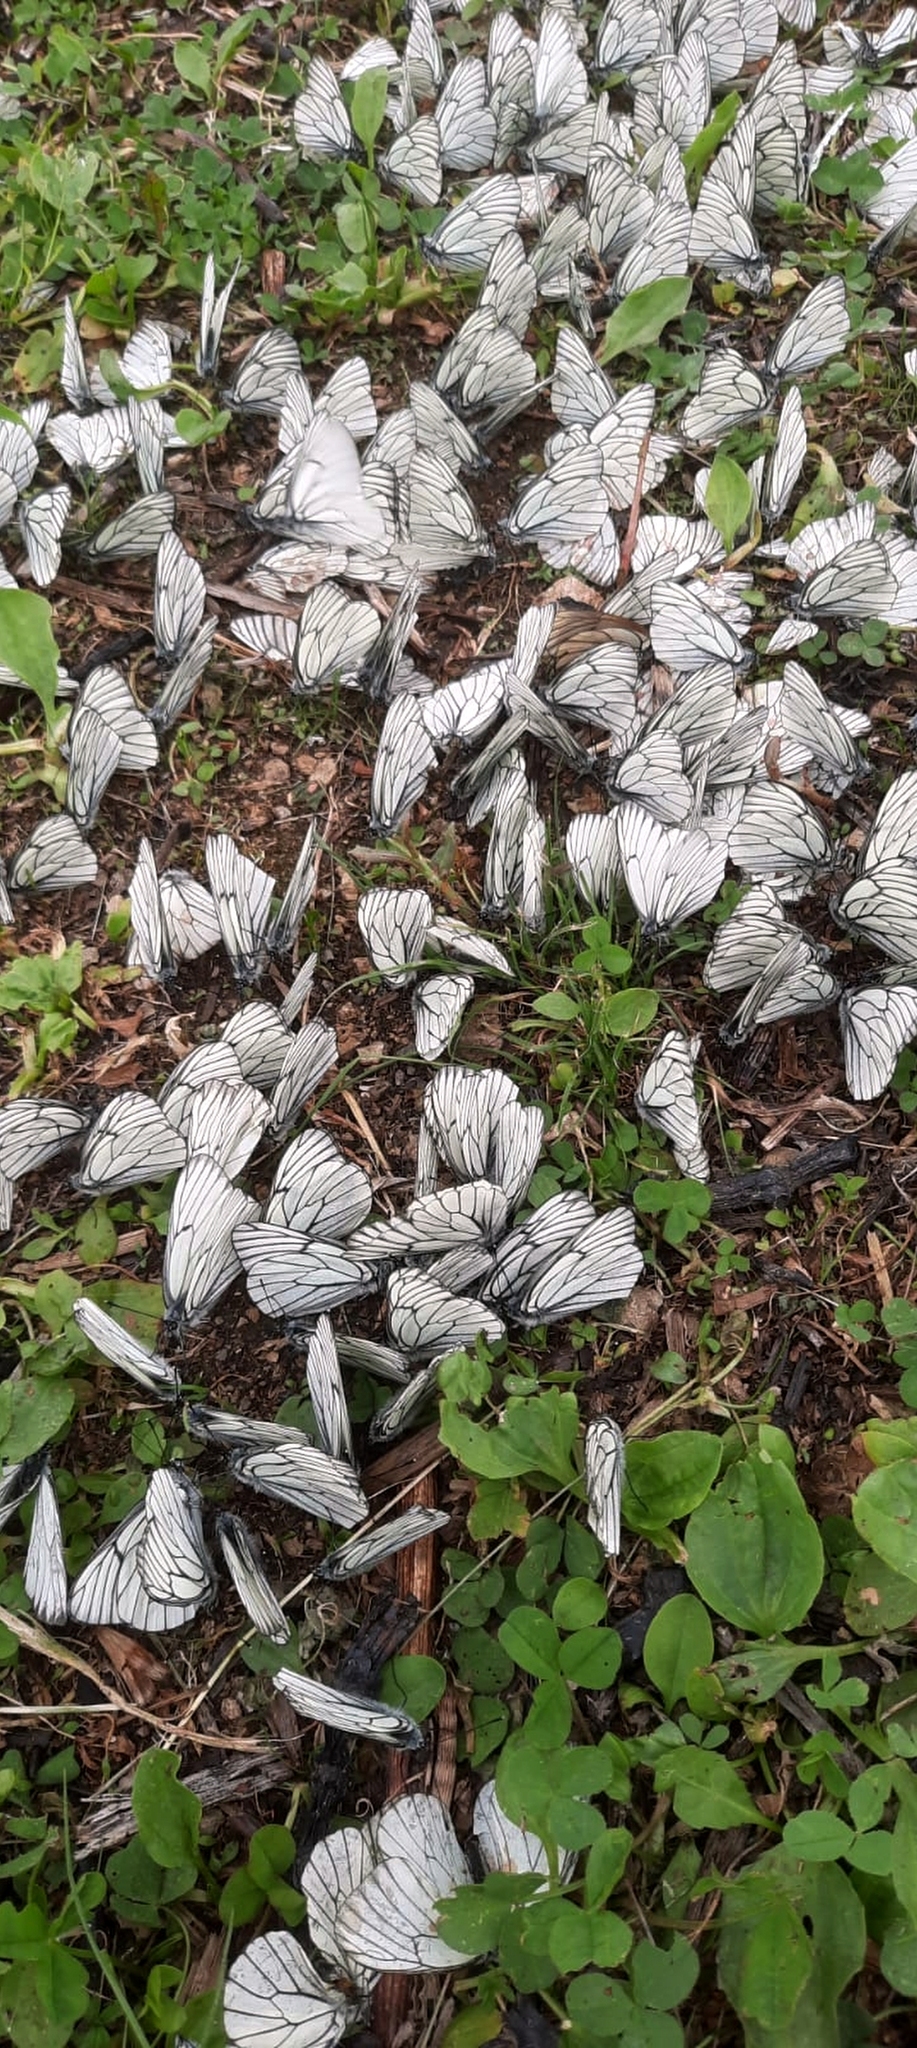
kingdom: Animalia
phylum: Arthropoda
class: Insecta
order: Lepidoptera
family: Pieridae
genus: Aporia
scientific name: Aporia crataegi
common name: Black-veined white
